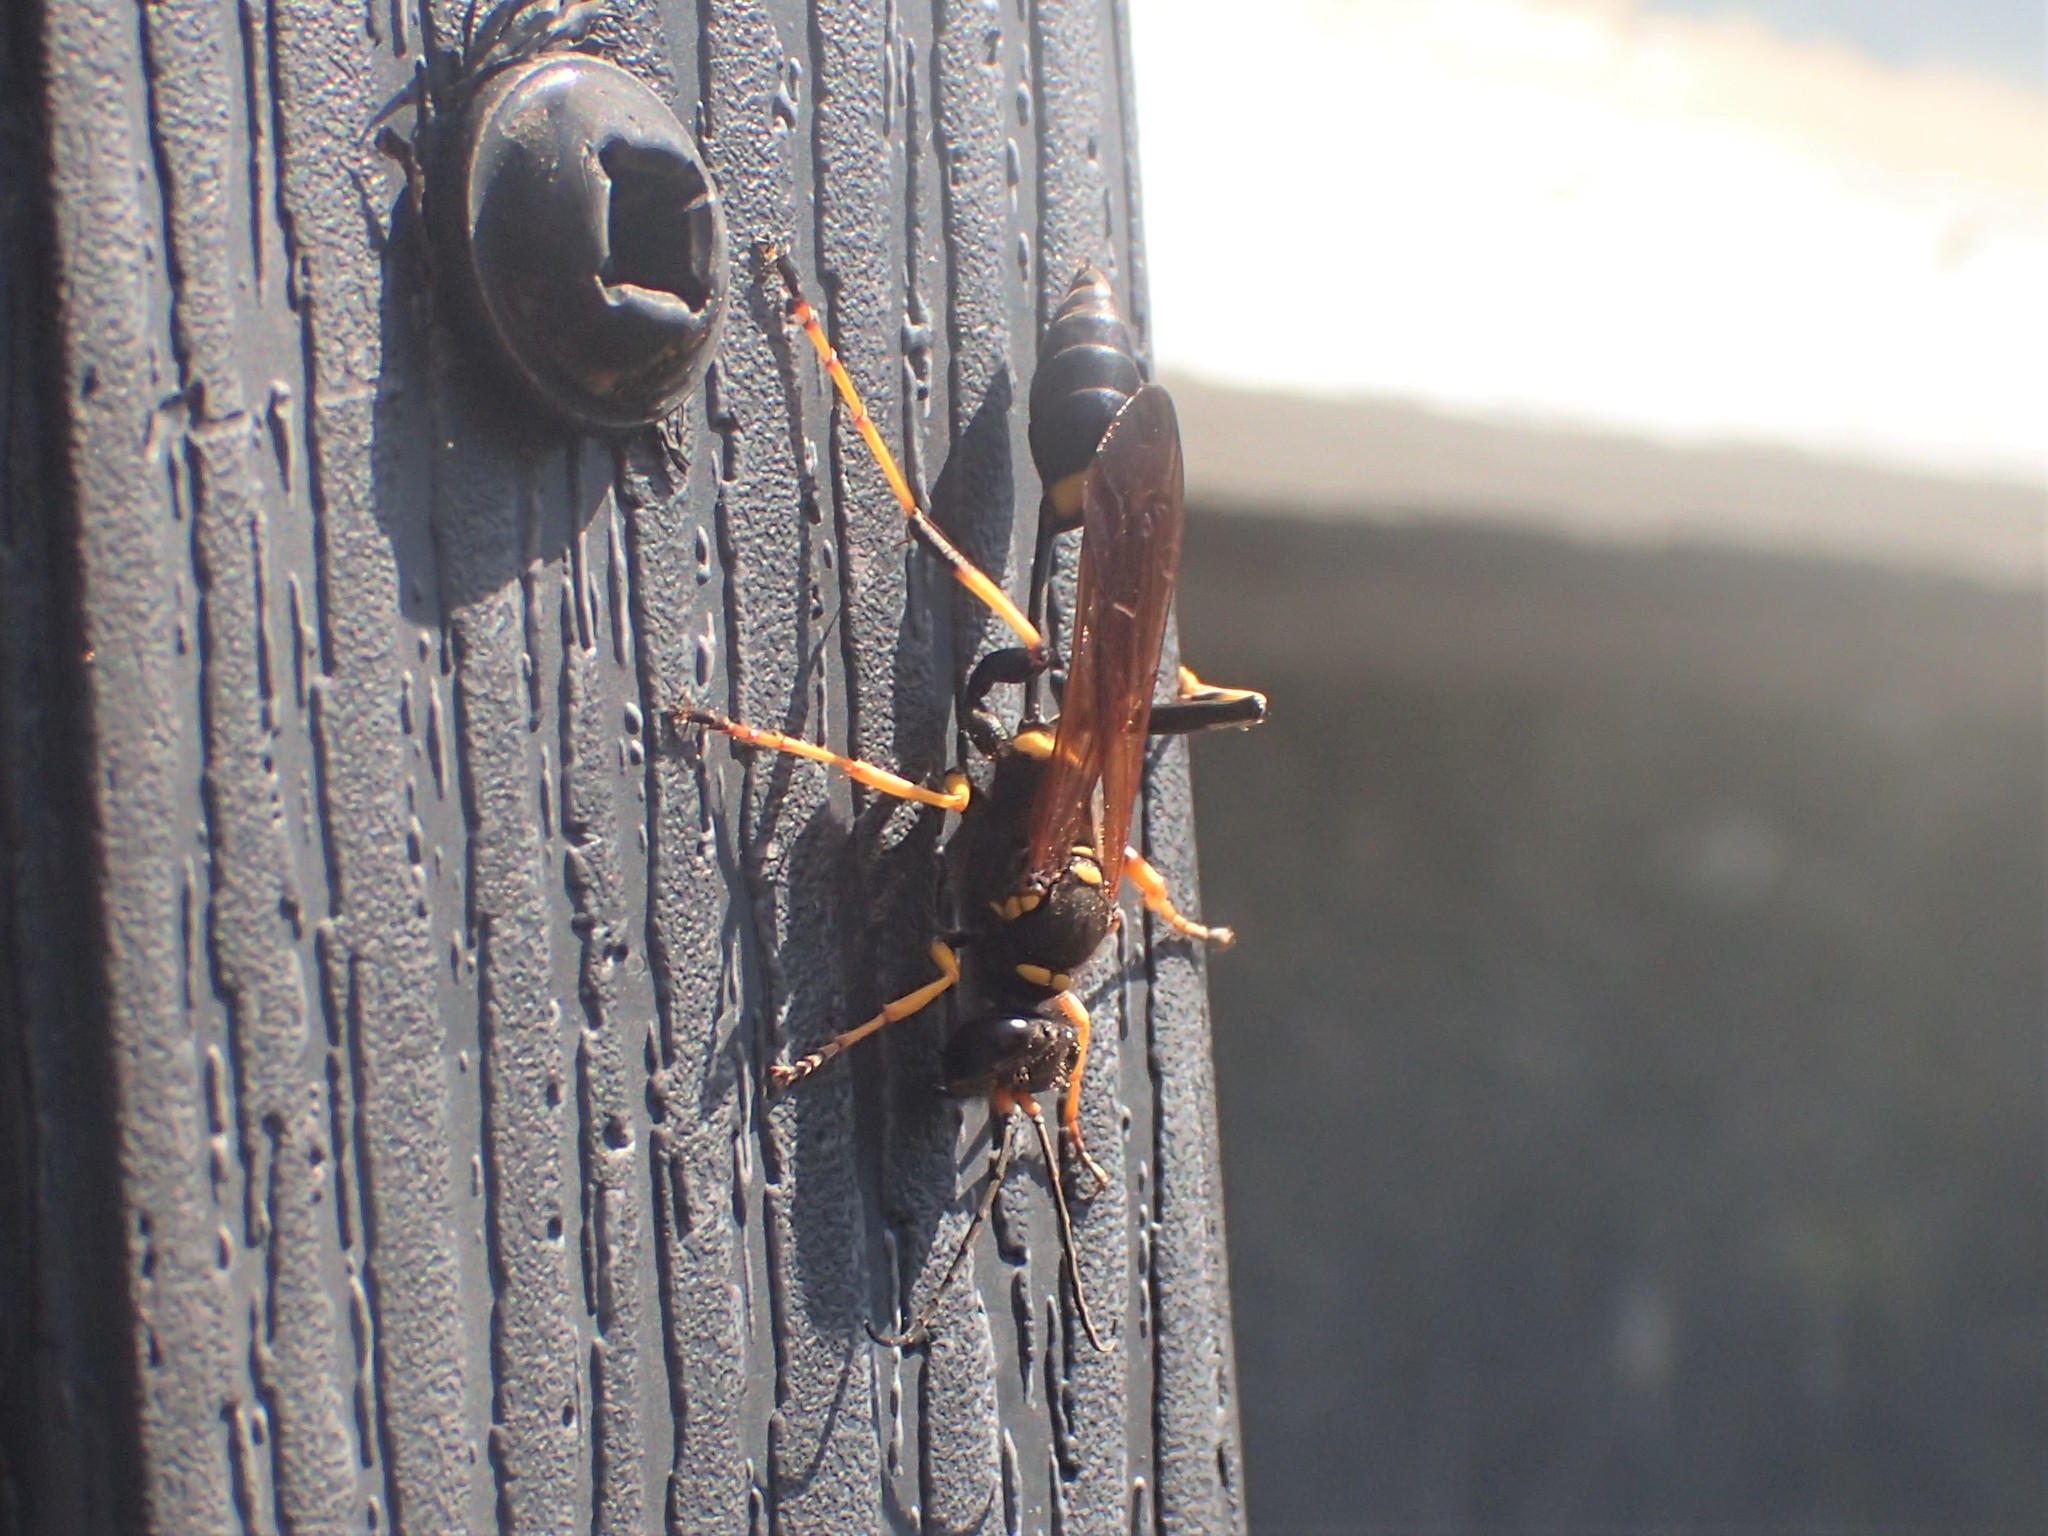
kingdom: Animalia
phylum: Arthropoda
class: Insecta
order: Hymenoptera
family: Sphecidae
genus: Sceliphron
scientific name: Sceliphron caementarium
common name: Mud dauber
